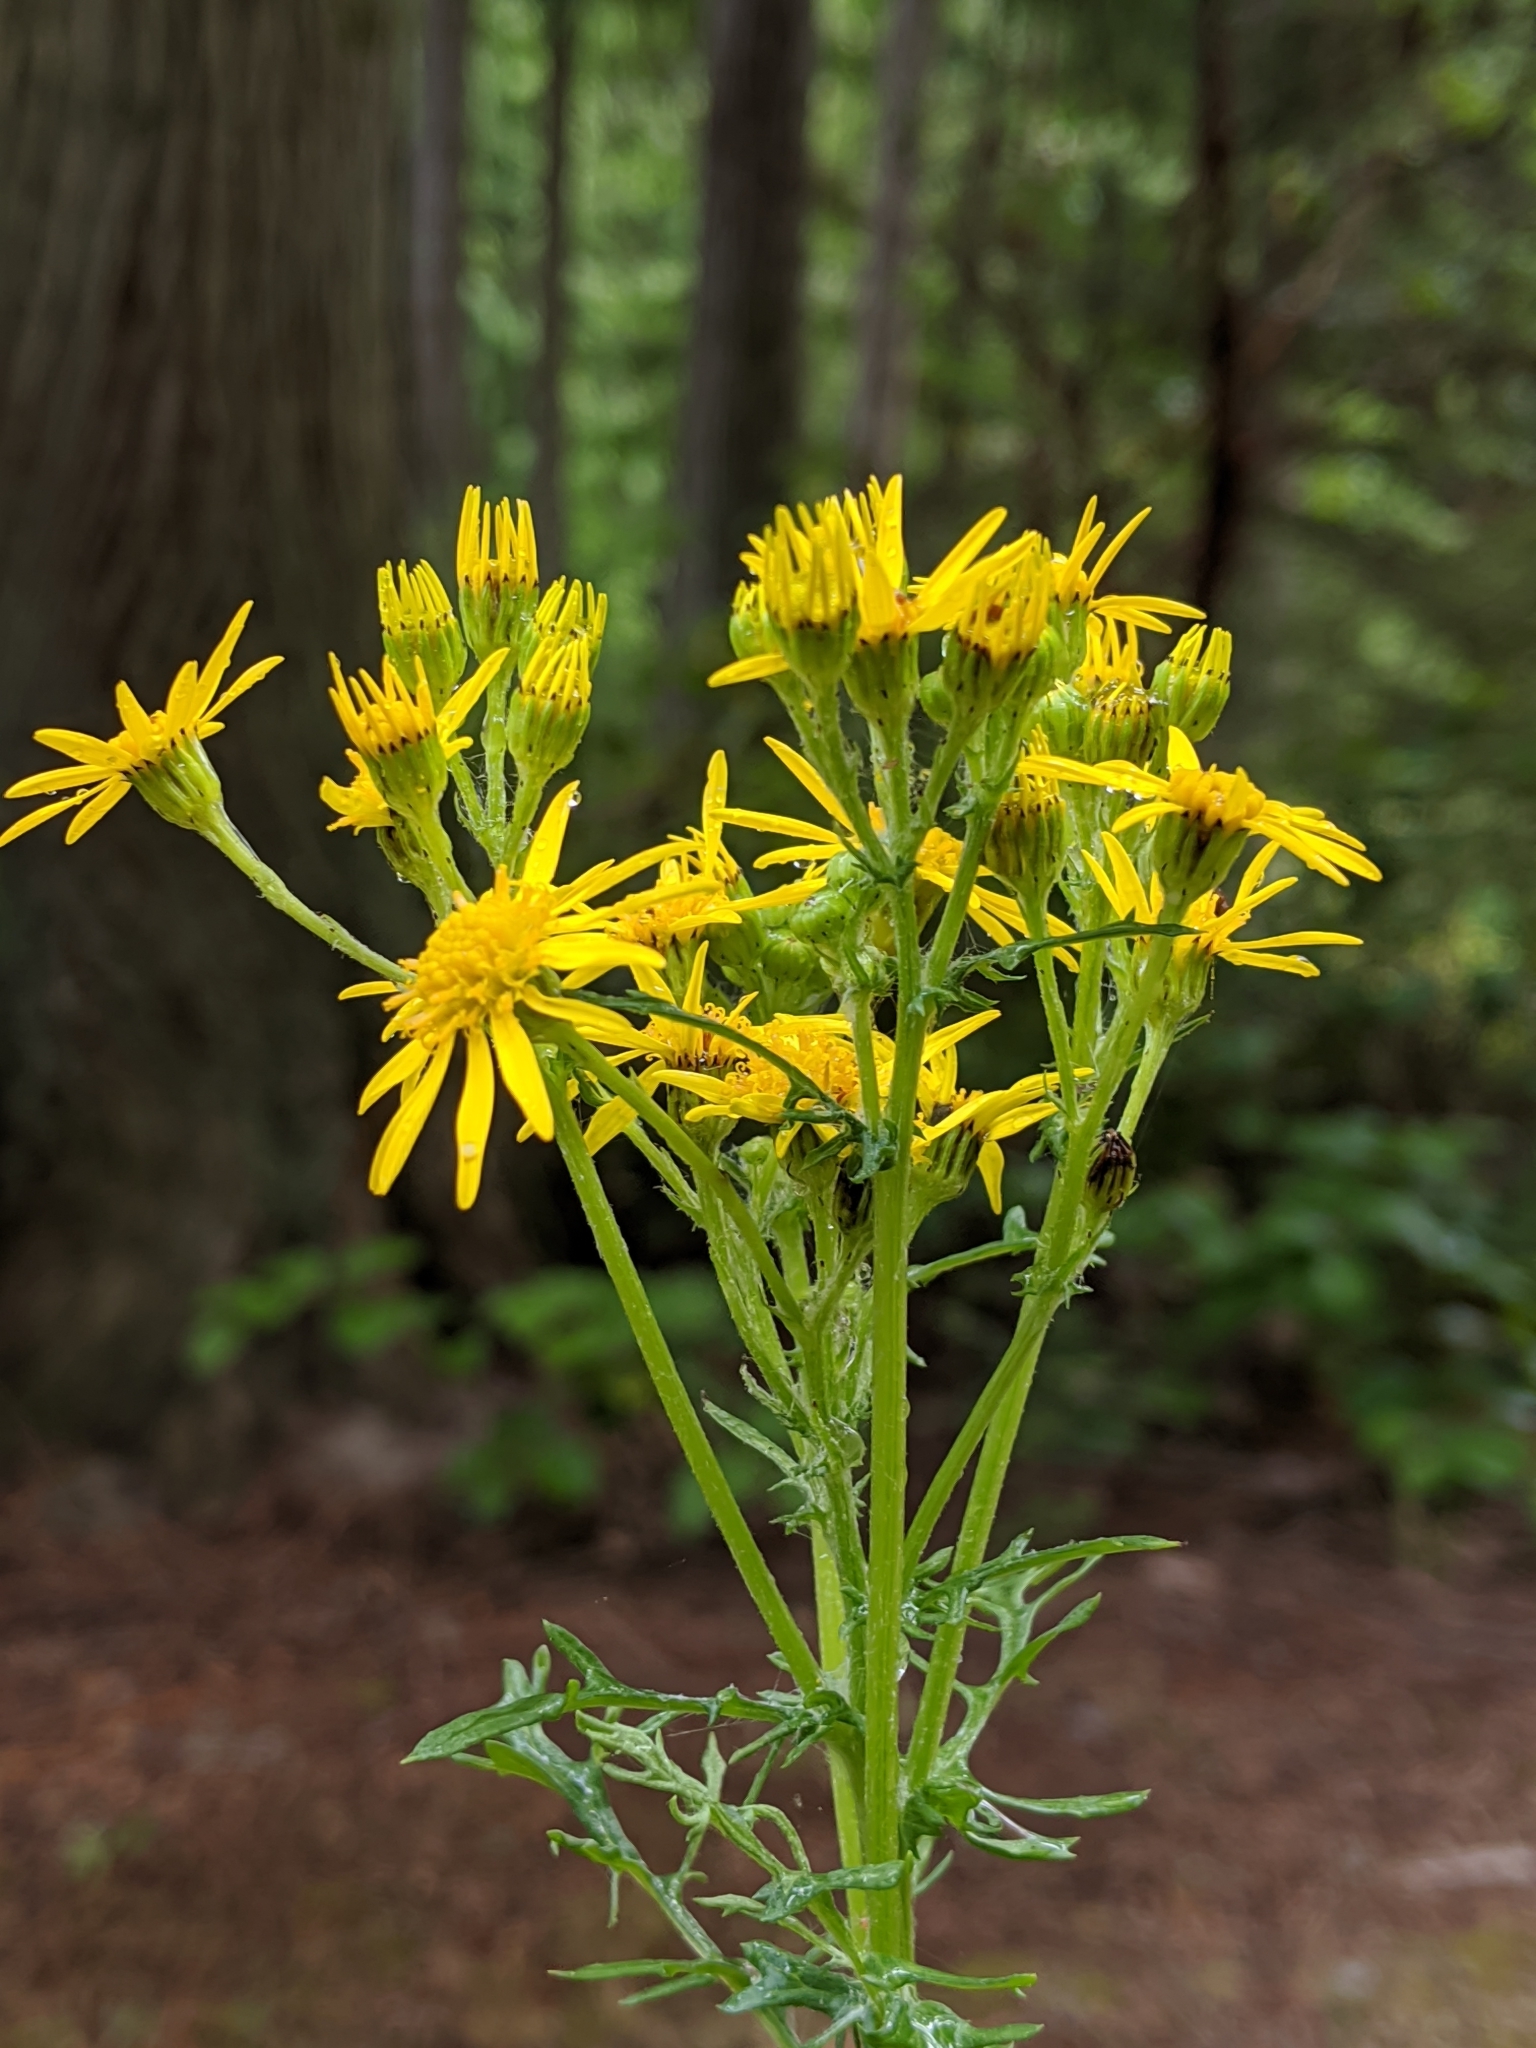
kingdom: Plantae
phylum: Tracheophyta
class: Magnoliopsida
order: Asterales
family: Asteraceae
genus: Jacobaea
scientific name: Jacobaea vulgaris
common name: Stinking willie
